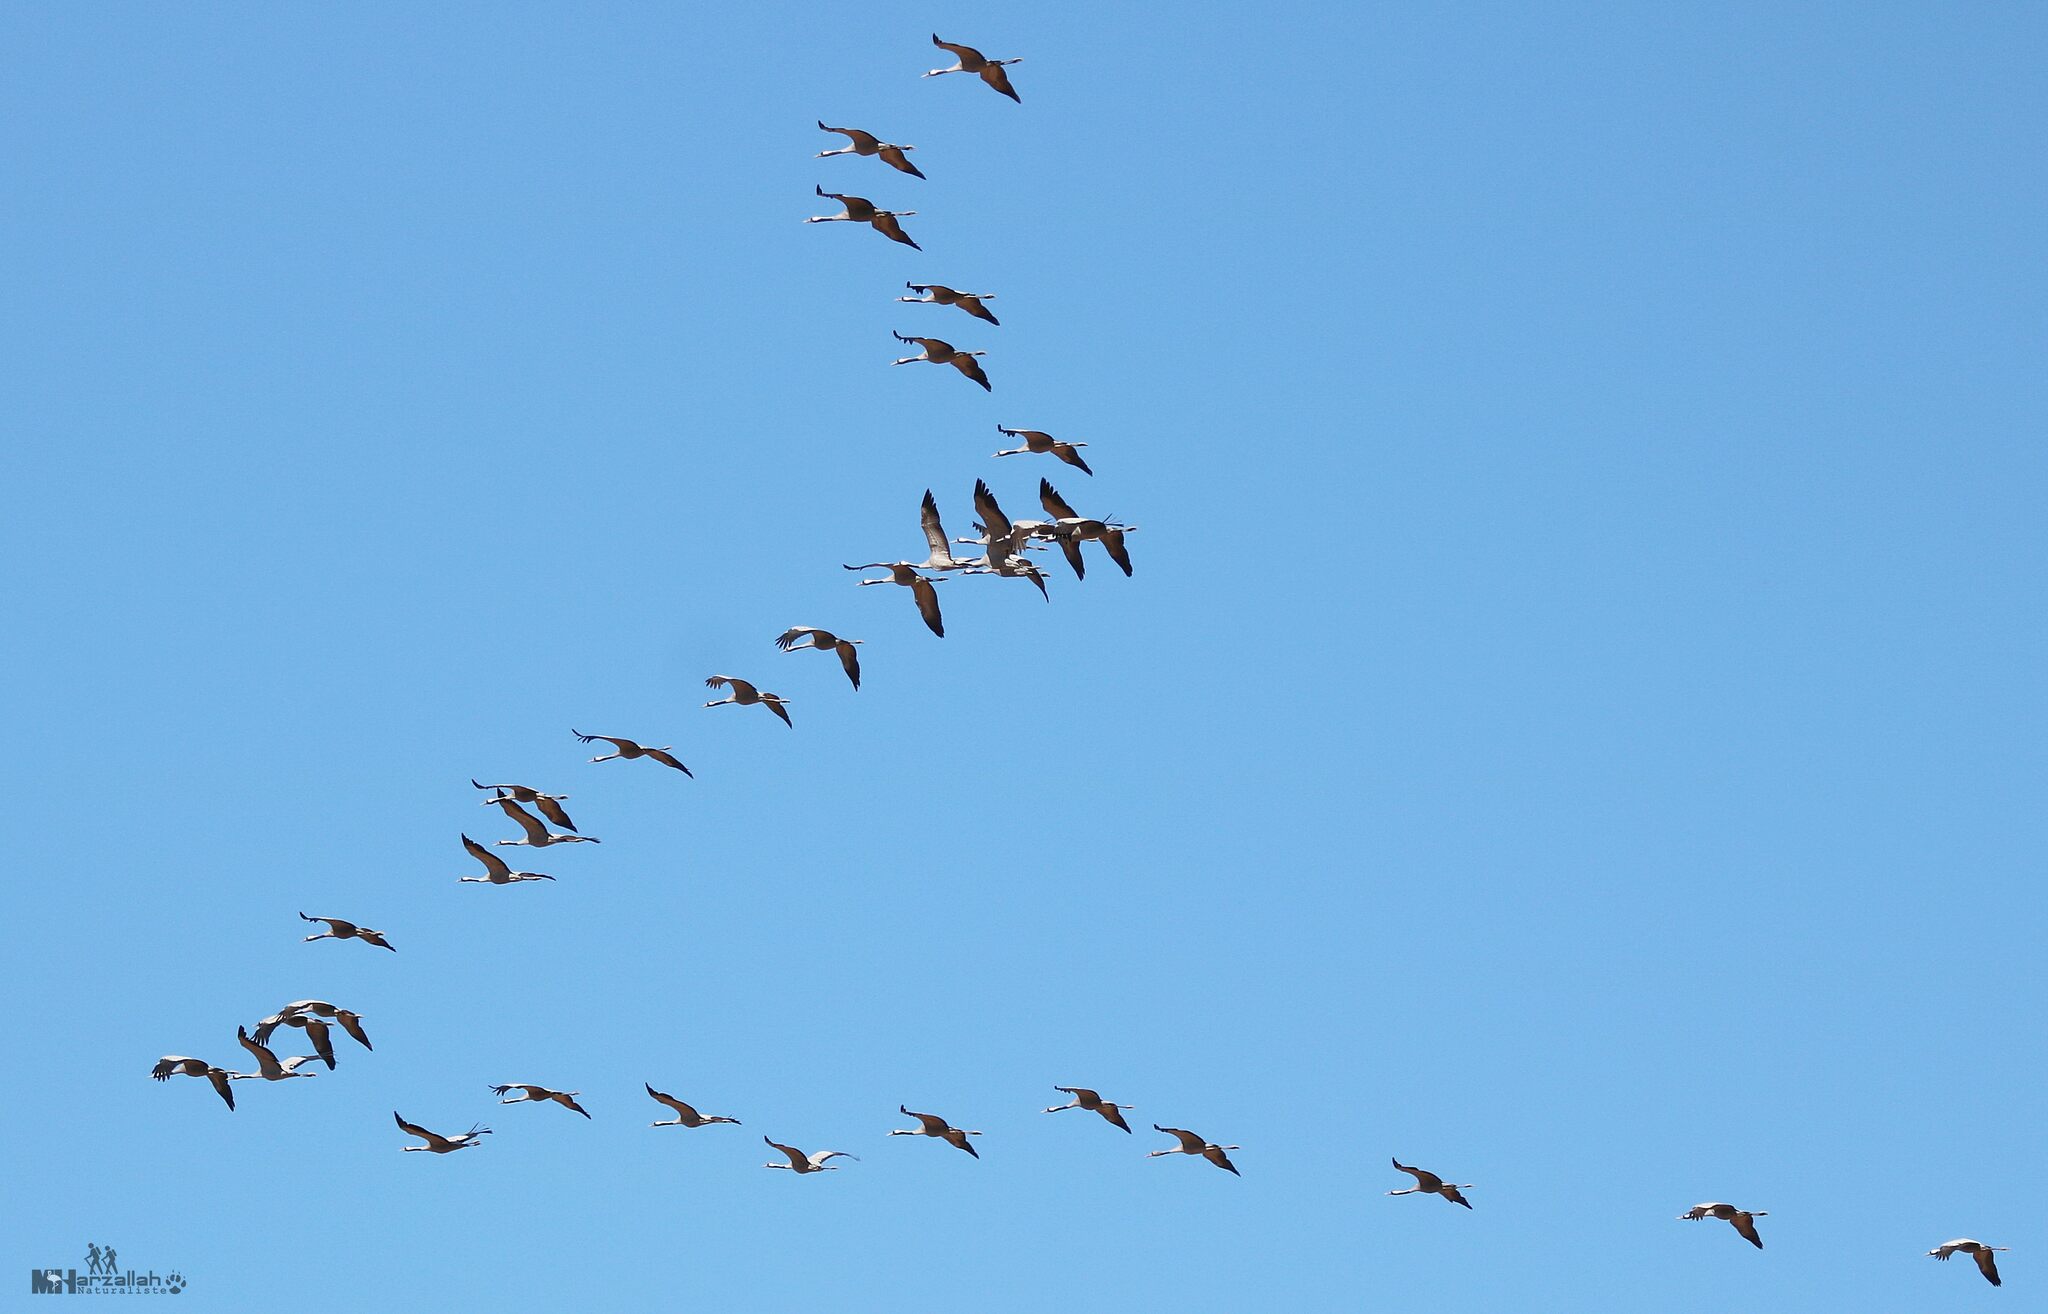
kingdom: Animalia
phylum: Chordata
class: Aves
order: Gruiformes
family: Gruidae
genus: Grus
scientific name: Grus grus
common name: Common crane
